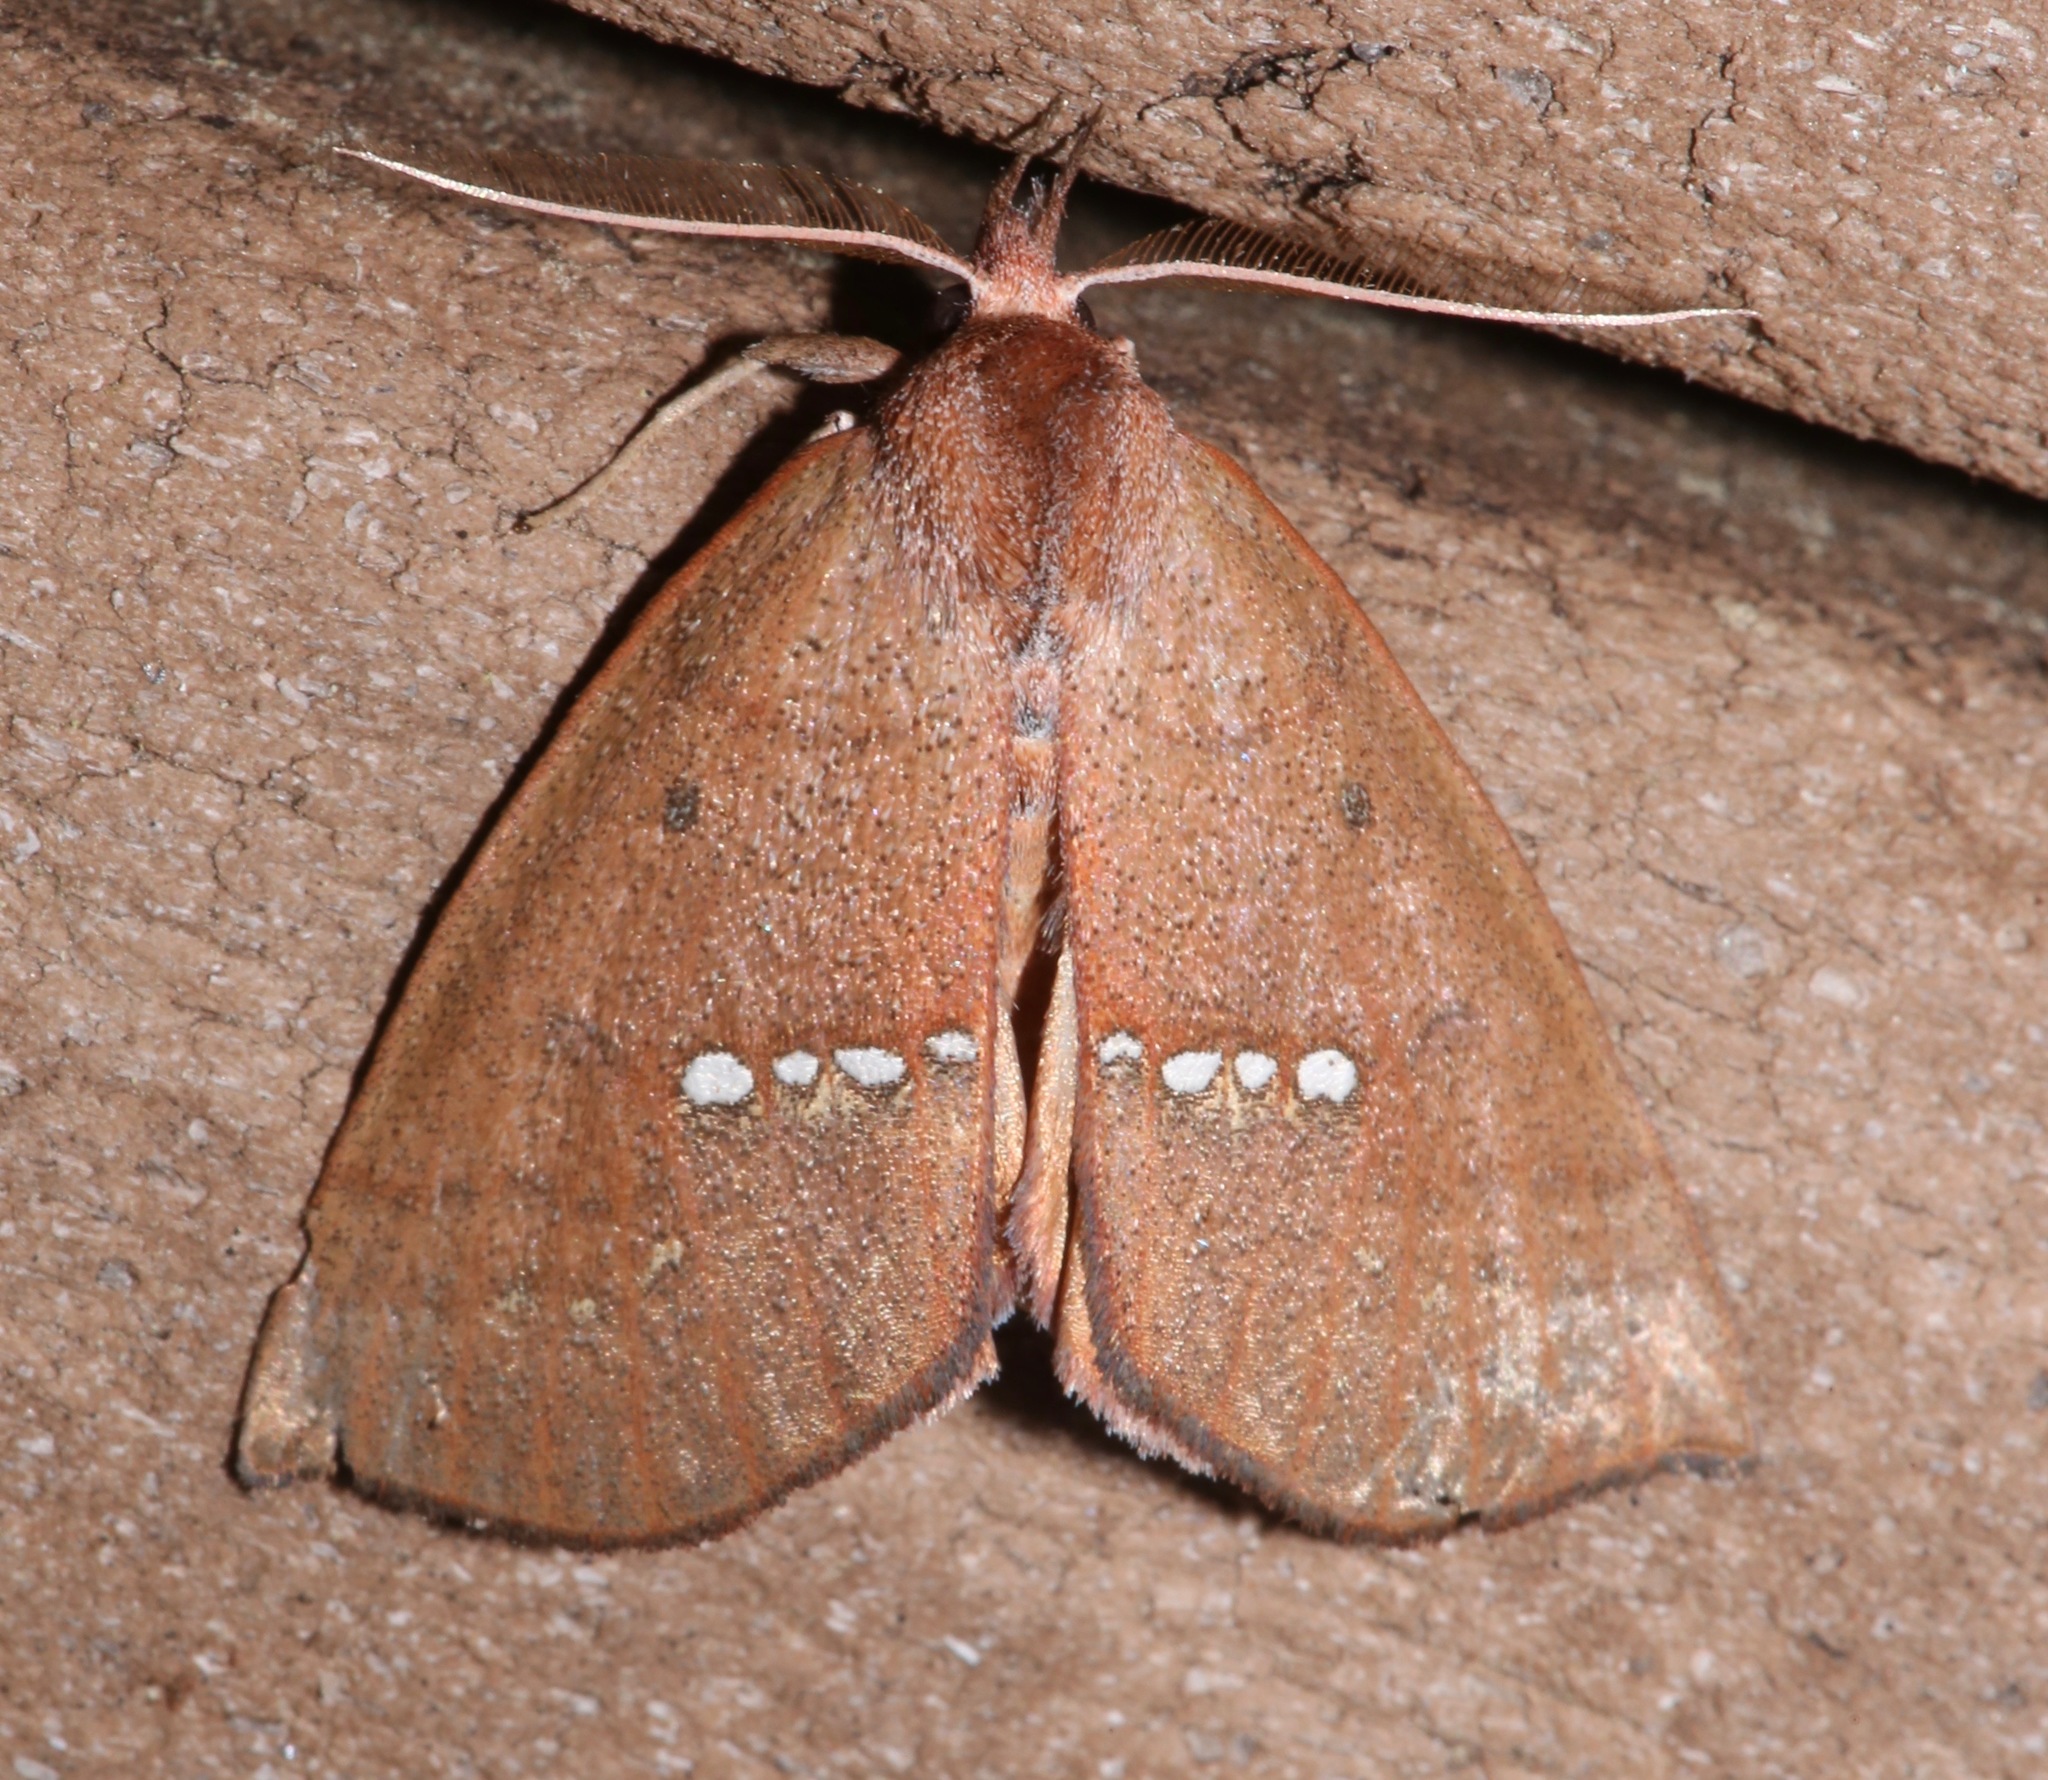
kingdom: Animalia
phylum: Arthropoda
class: Insecta
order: Lepidoptera
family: Erebidae
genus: Hypsoropha
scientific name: Hypsoropha monilis
